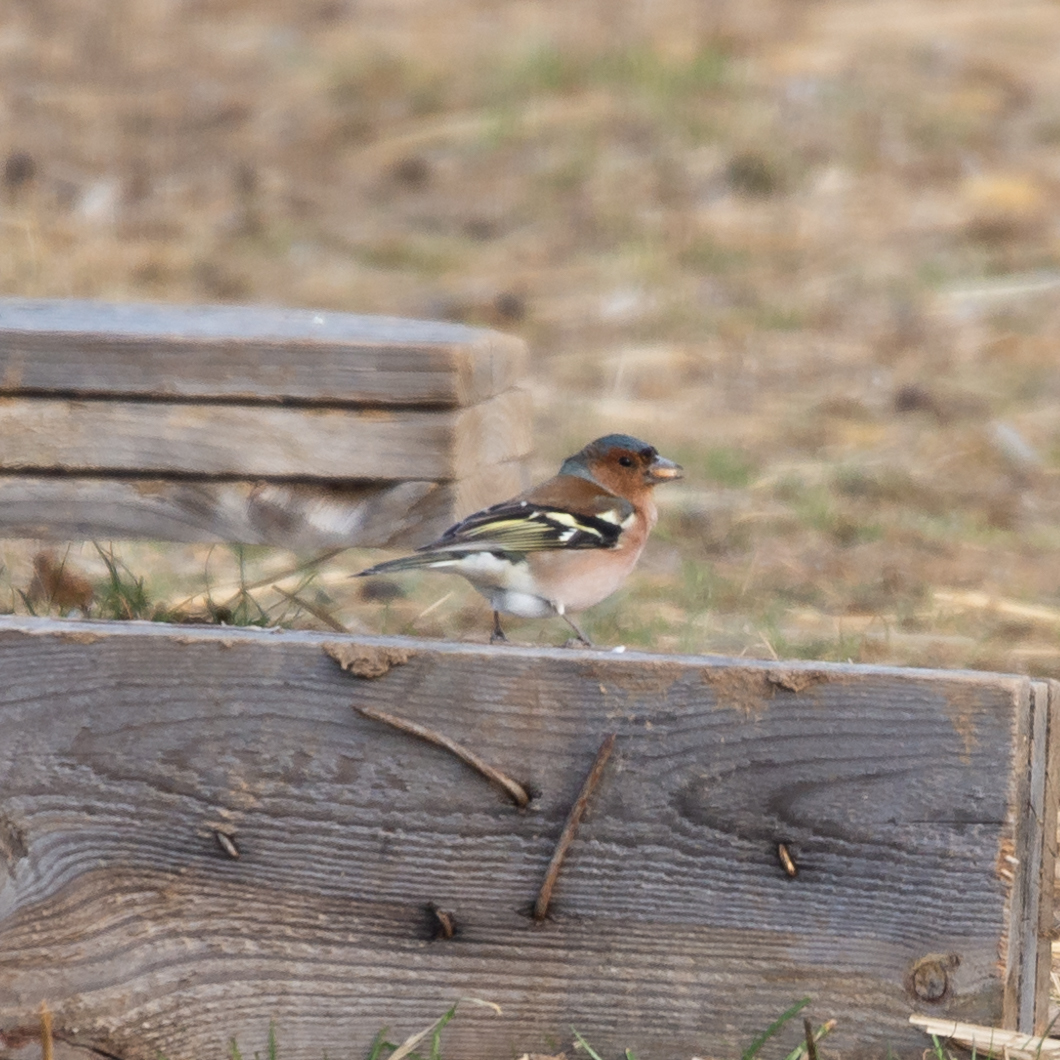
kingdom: Animalia
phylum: Chordata
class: Aves
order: Passeriformes
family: Fringillidae
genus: Fringilla
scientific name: Fringilla coelebs
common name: Common chaffinch
